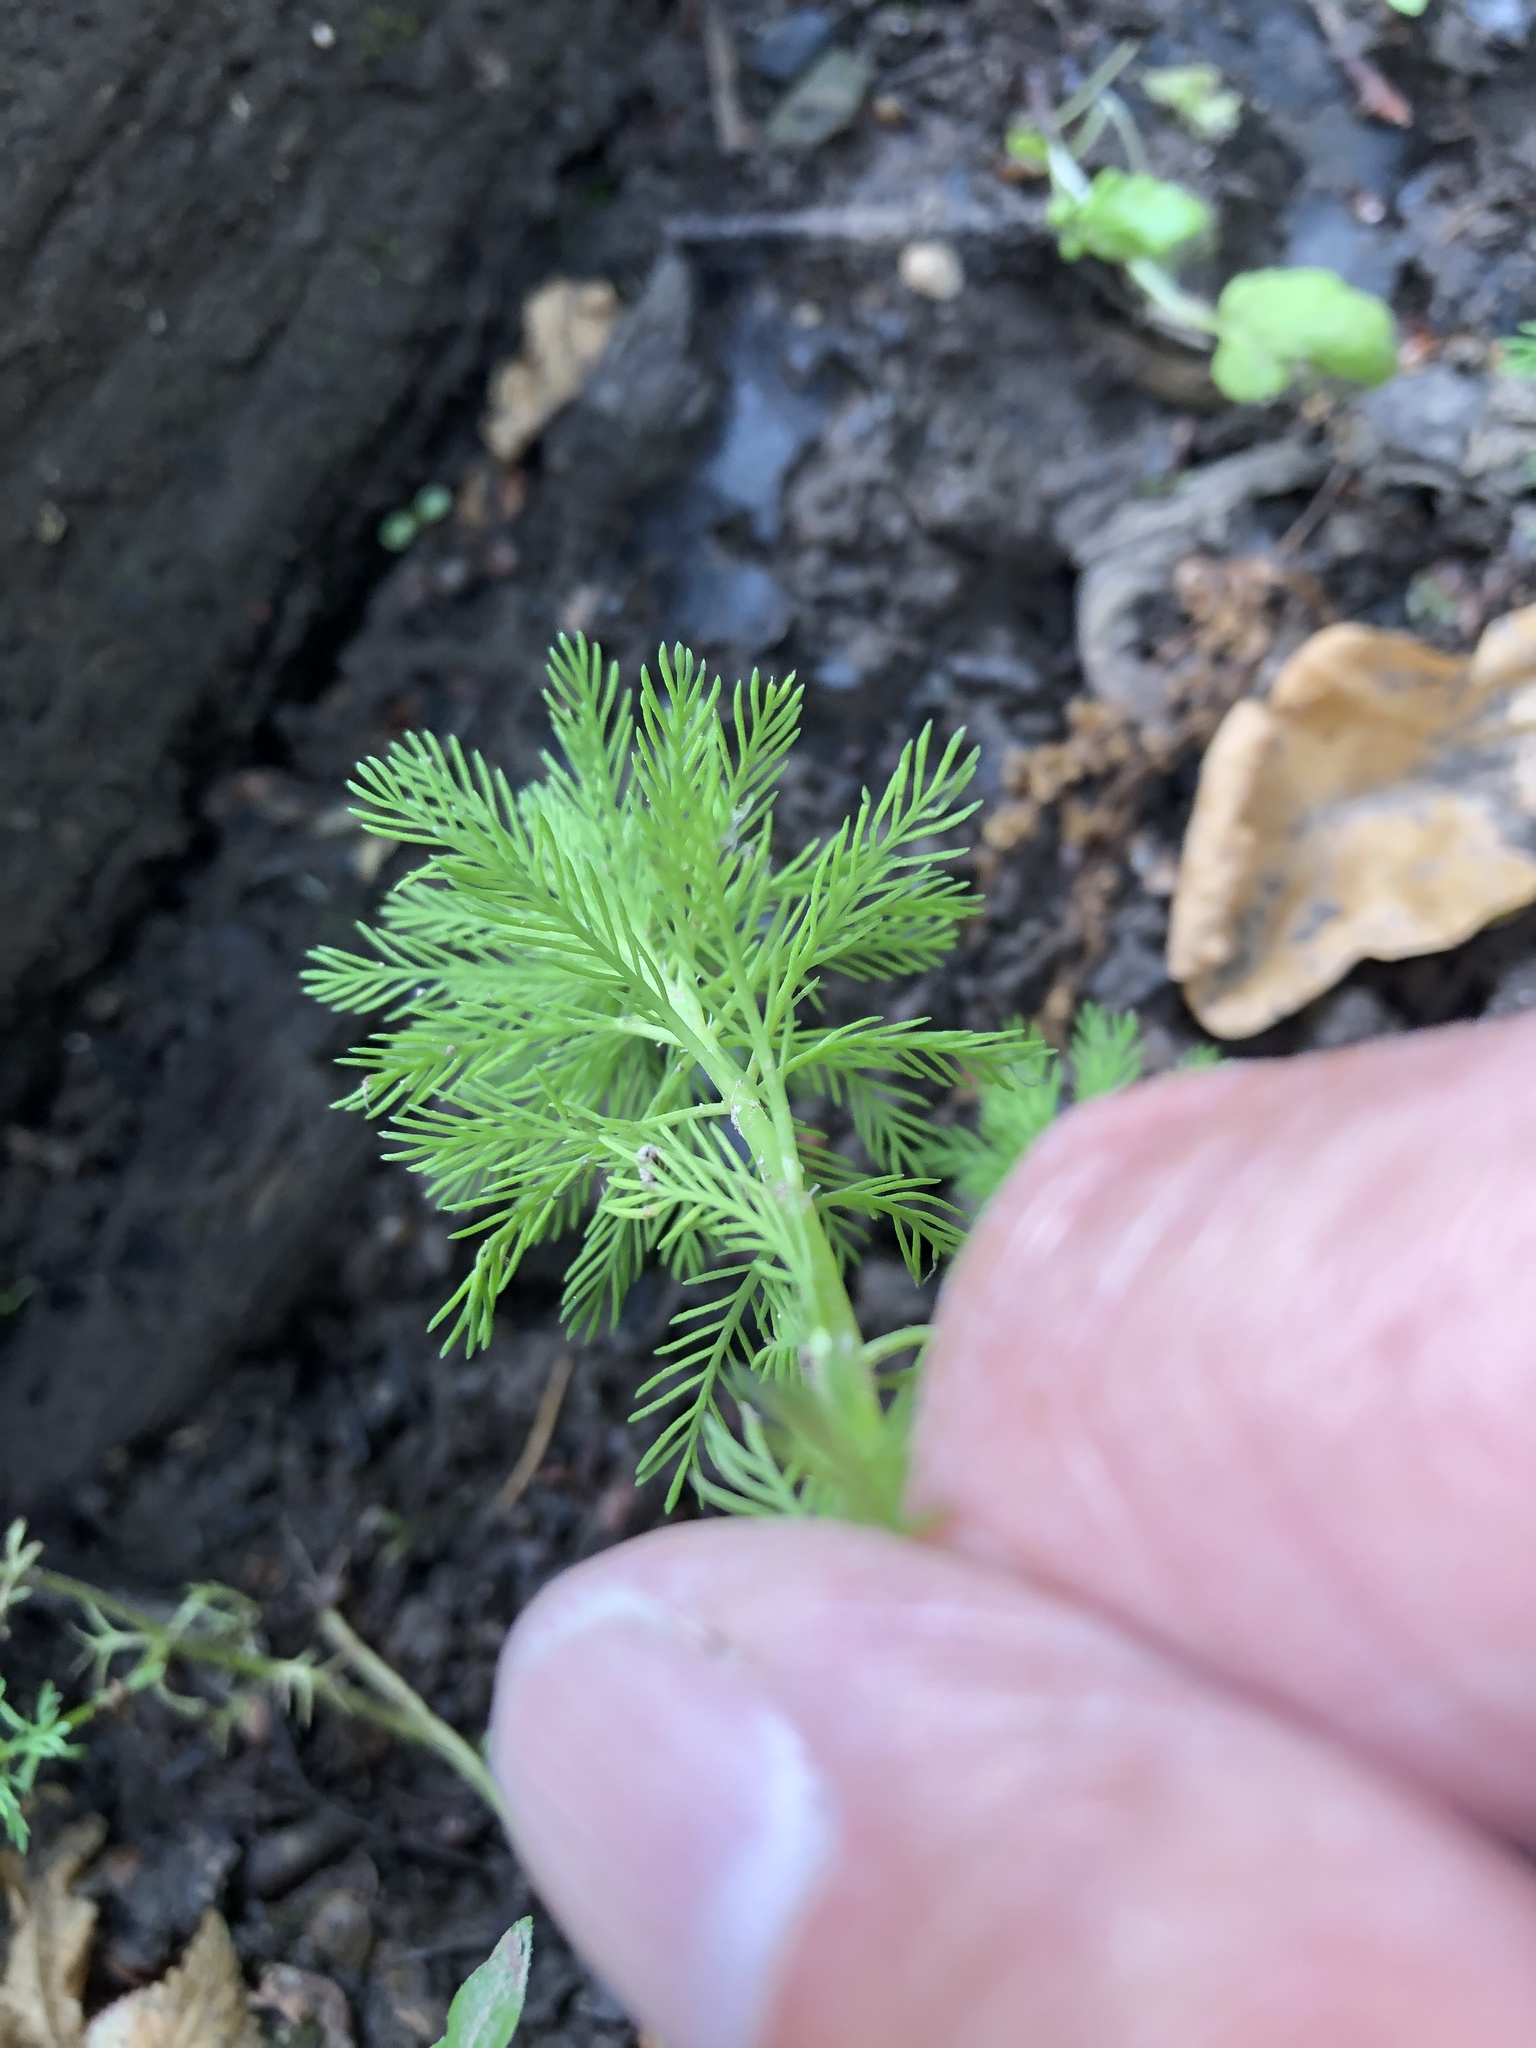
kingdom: Plantae
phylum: Tracheophyta
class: Magnoliopsida
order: Saxifragales
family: Haloragaceae
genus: Myriophyllum
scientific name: Myriophyllum aquaticum
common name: Parrot's feather
